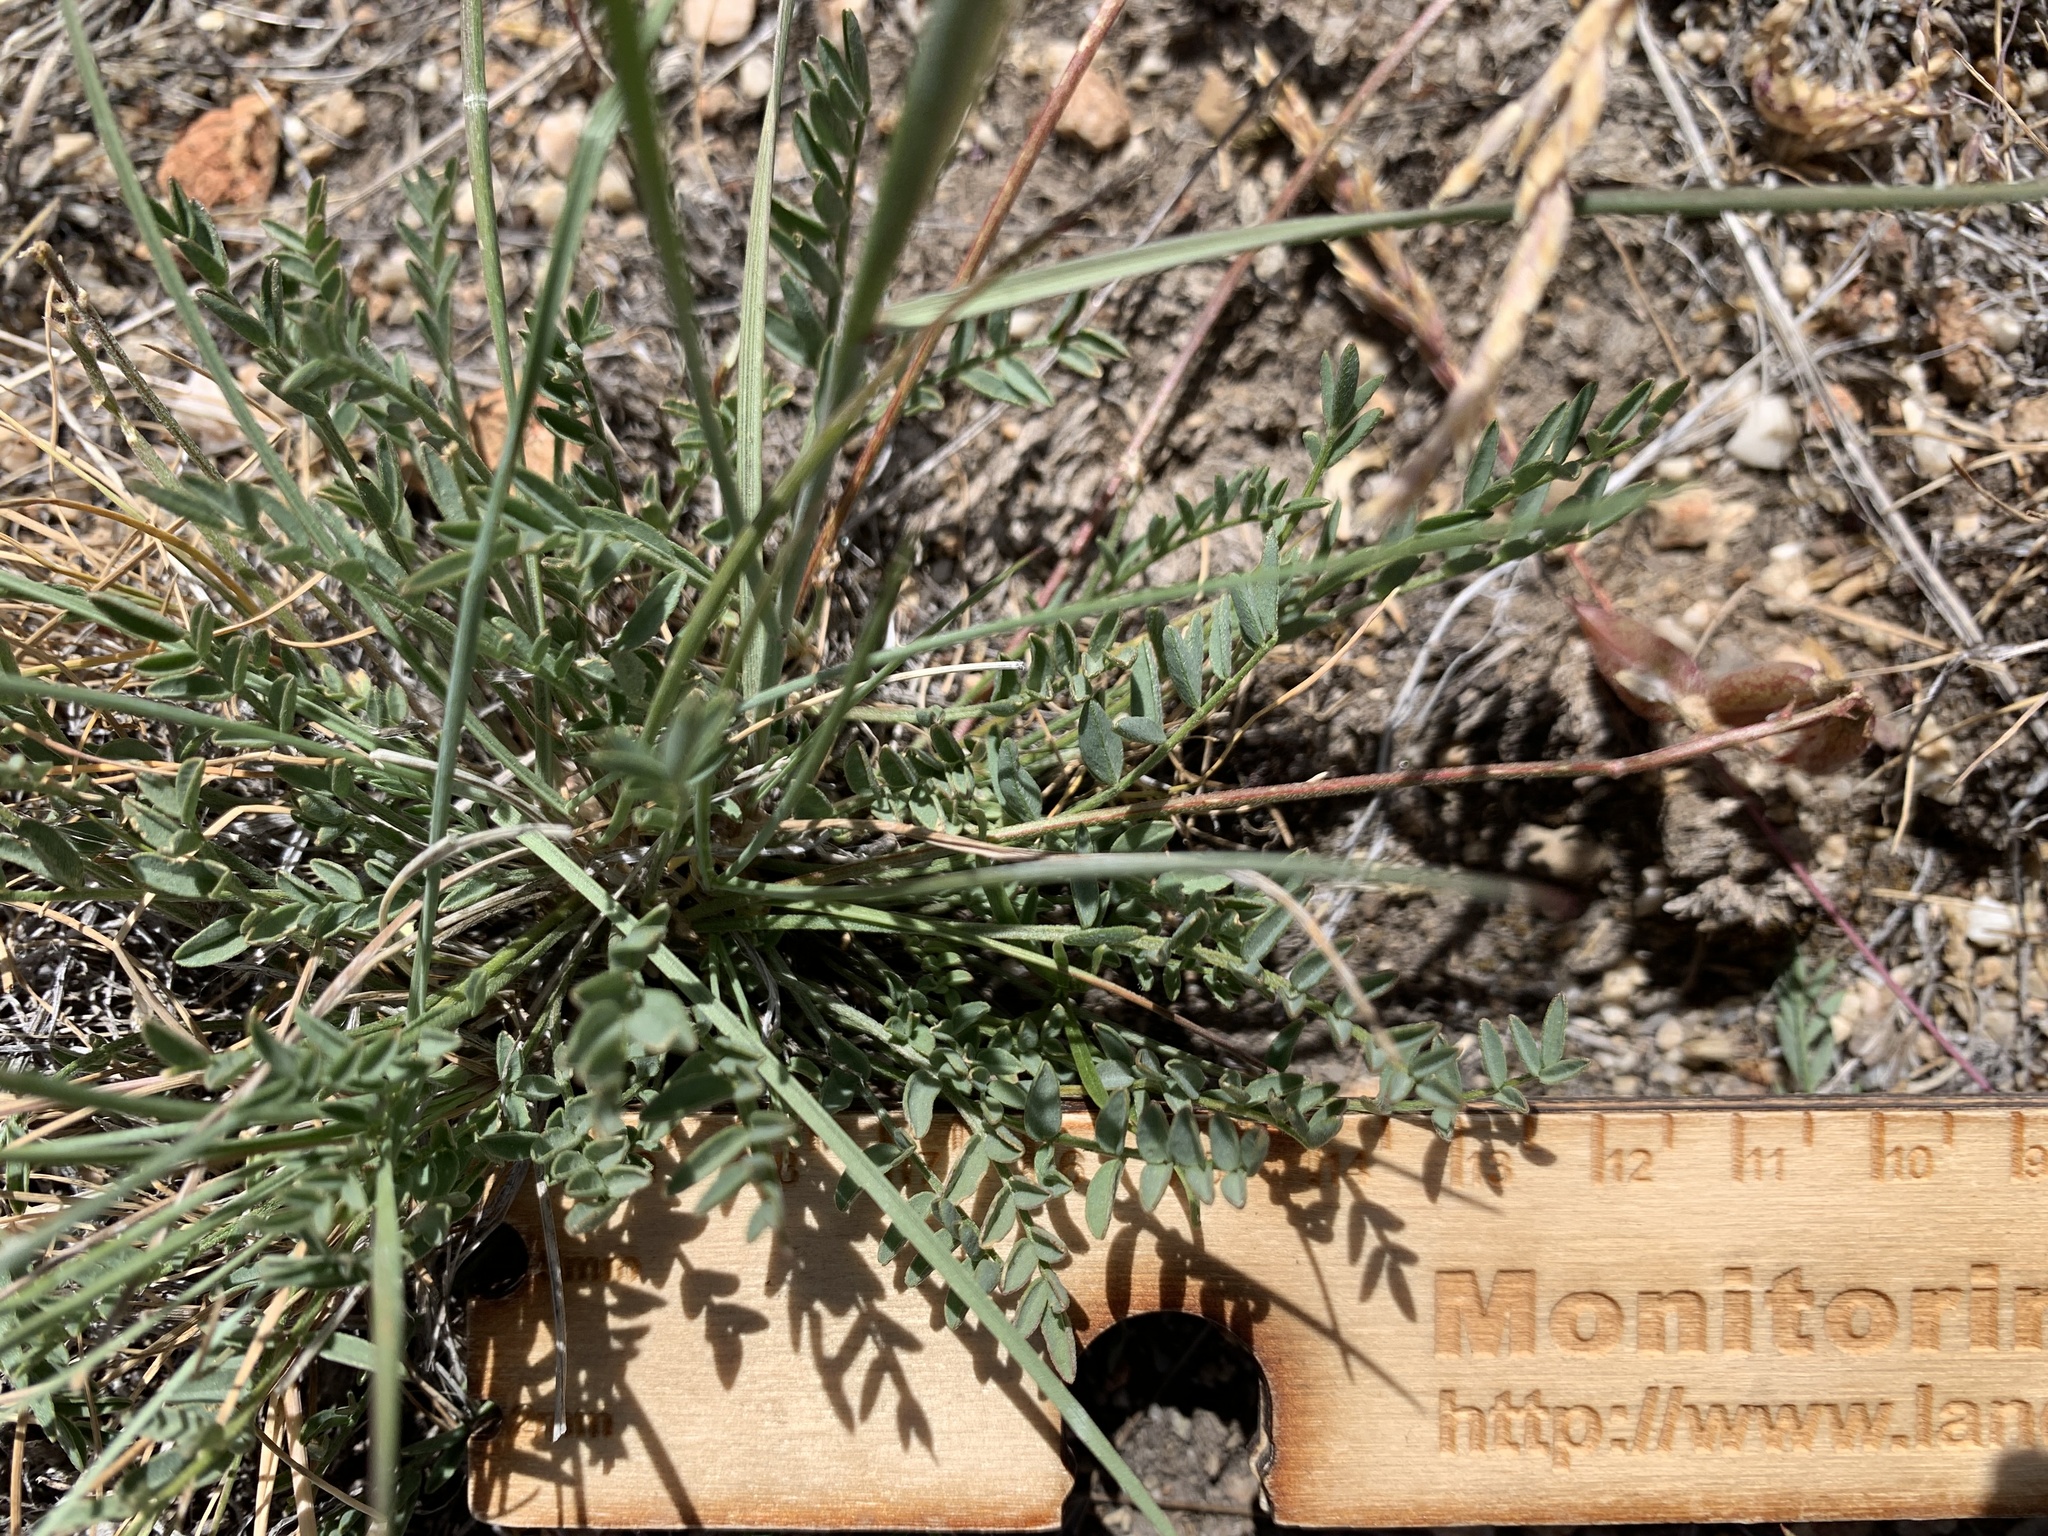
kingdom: Plantae
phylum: Tracheophyta
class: Magnoliopsida
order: Fabales
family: Fabaceae
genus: Astragalus
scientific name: Astragalus salmonis
